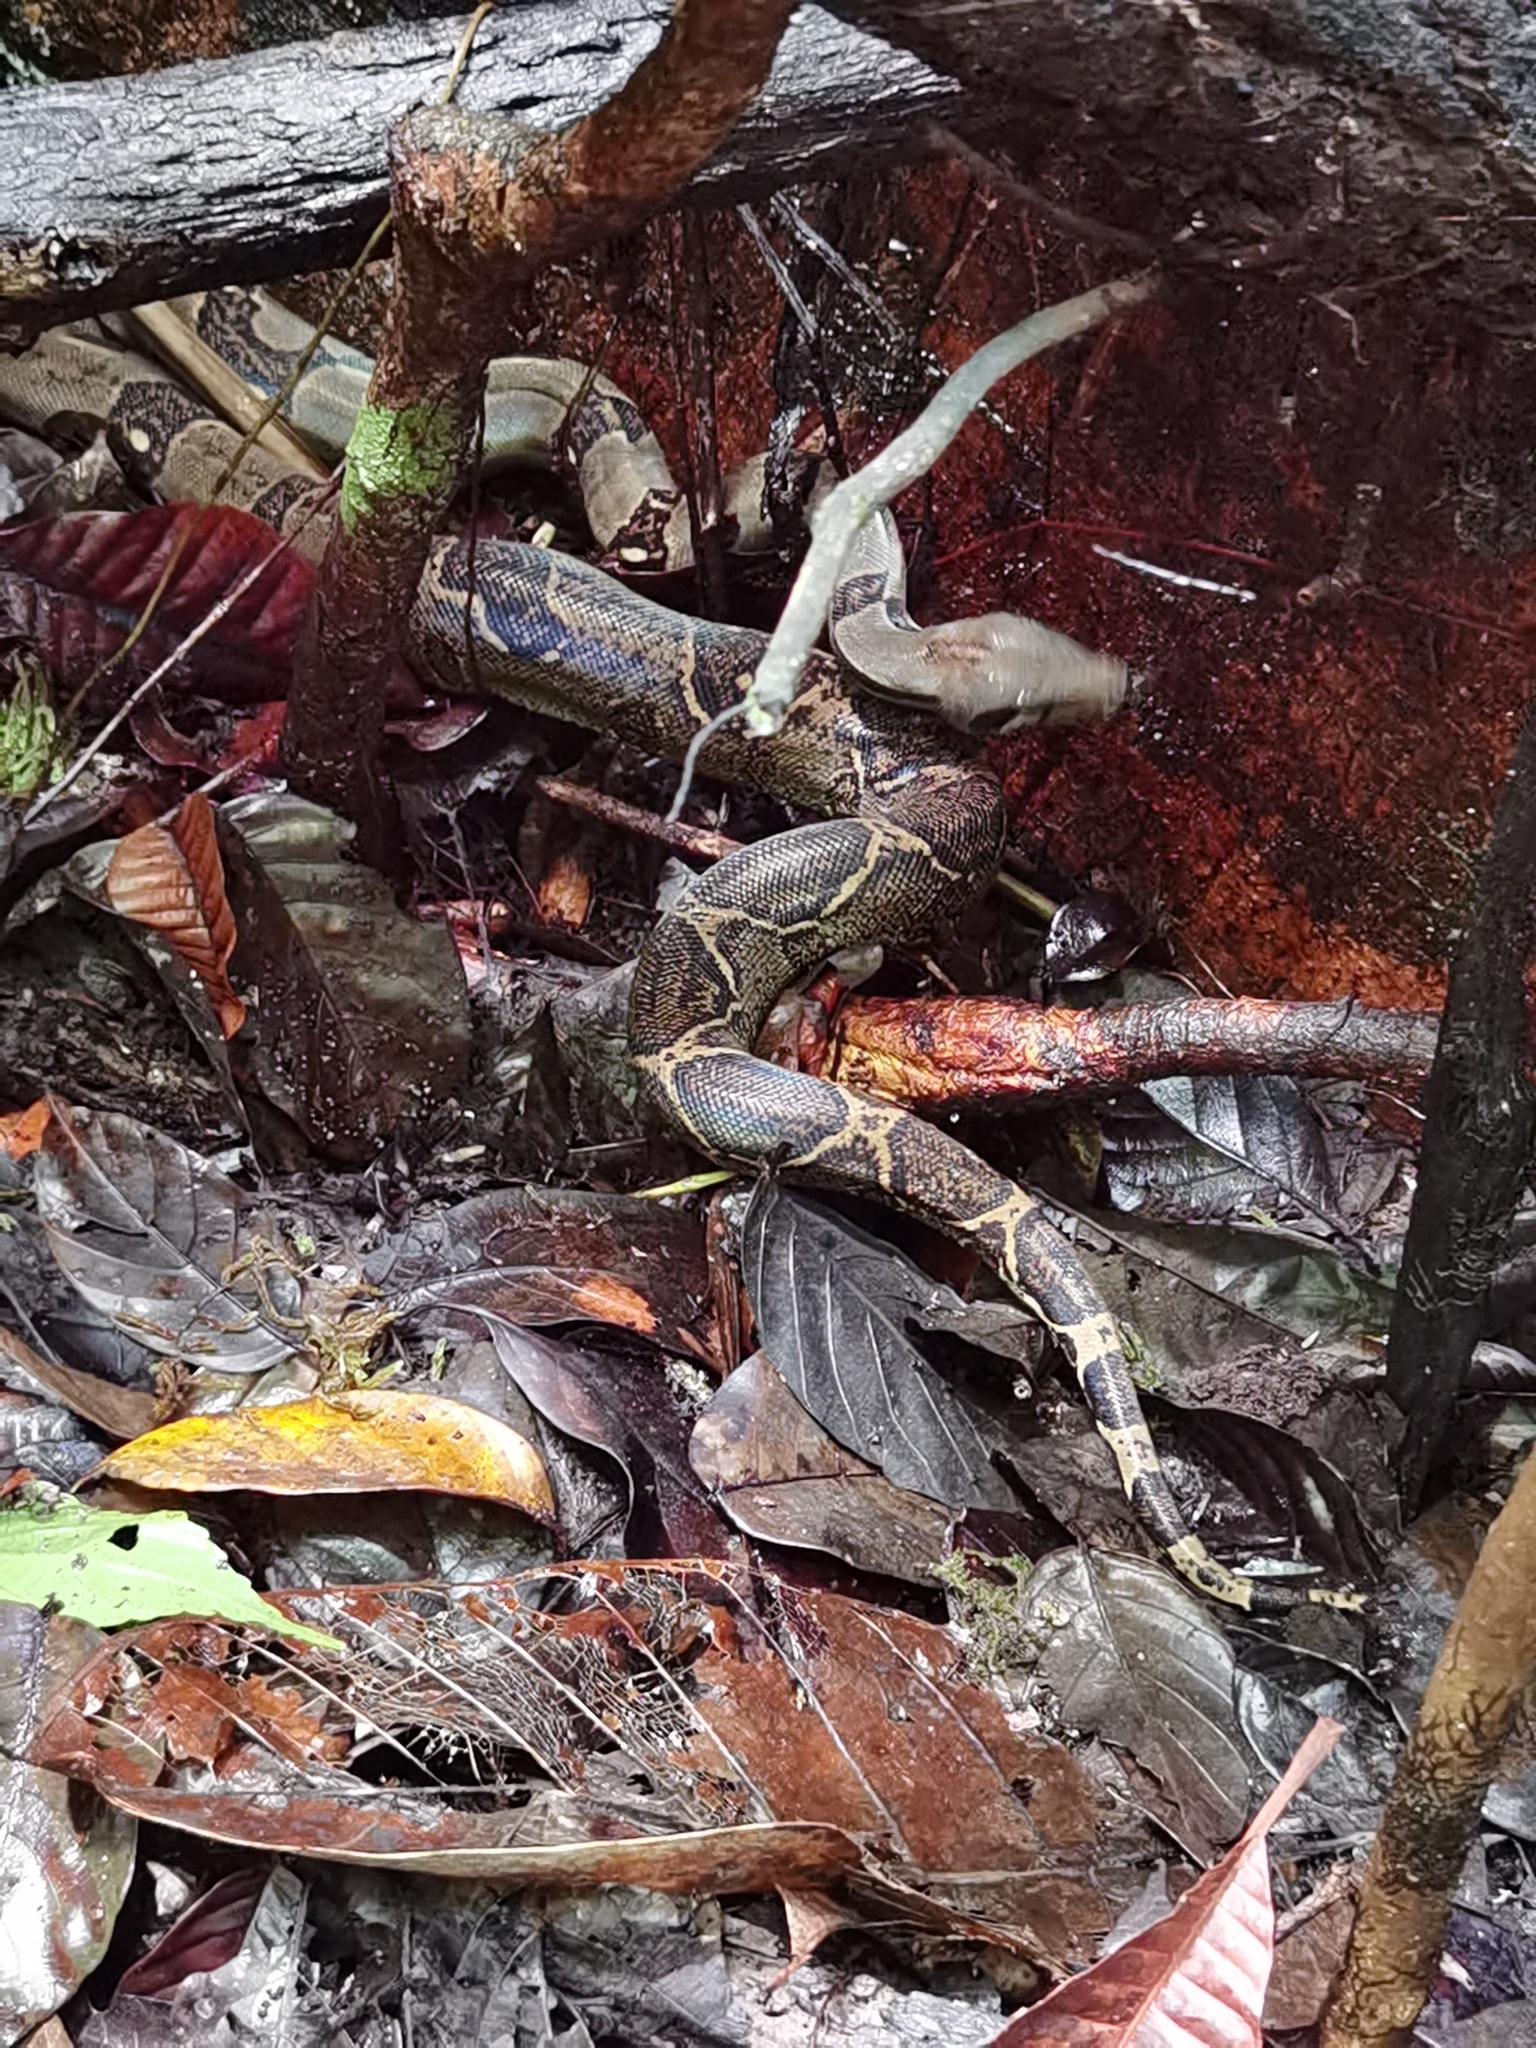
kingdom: Animalia
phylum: Chordata
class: Squamata
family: Boidae
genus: Boa
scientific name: Boa imperator
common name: Central american boa
